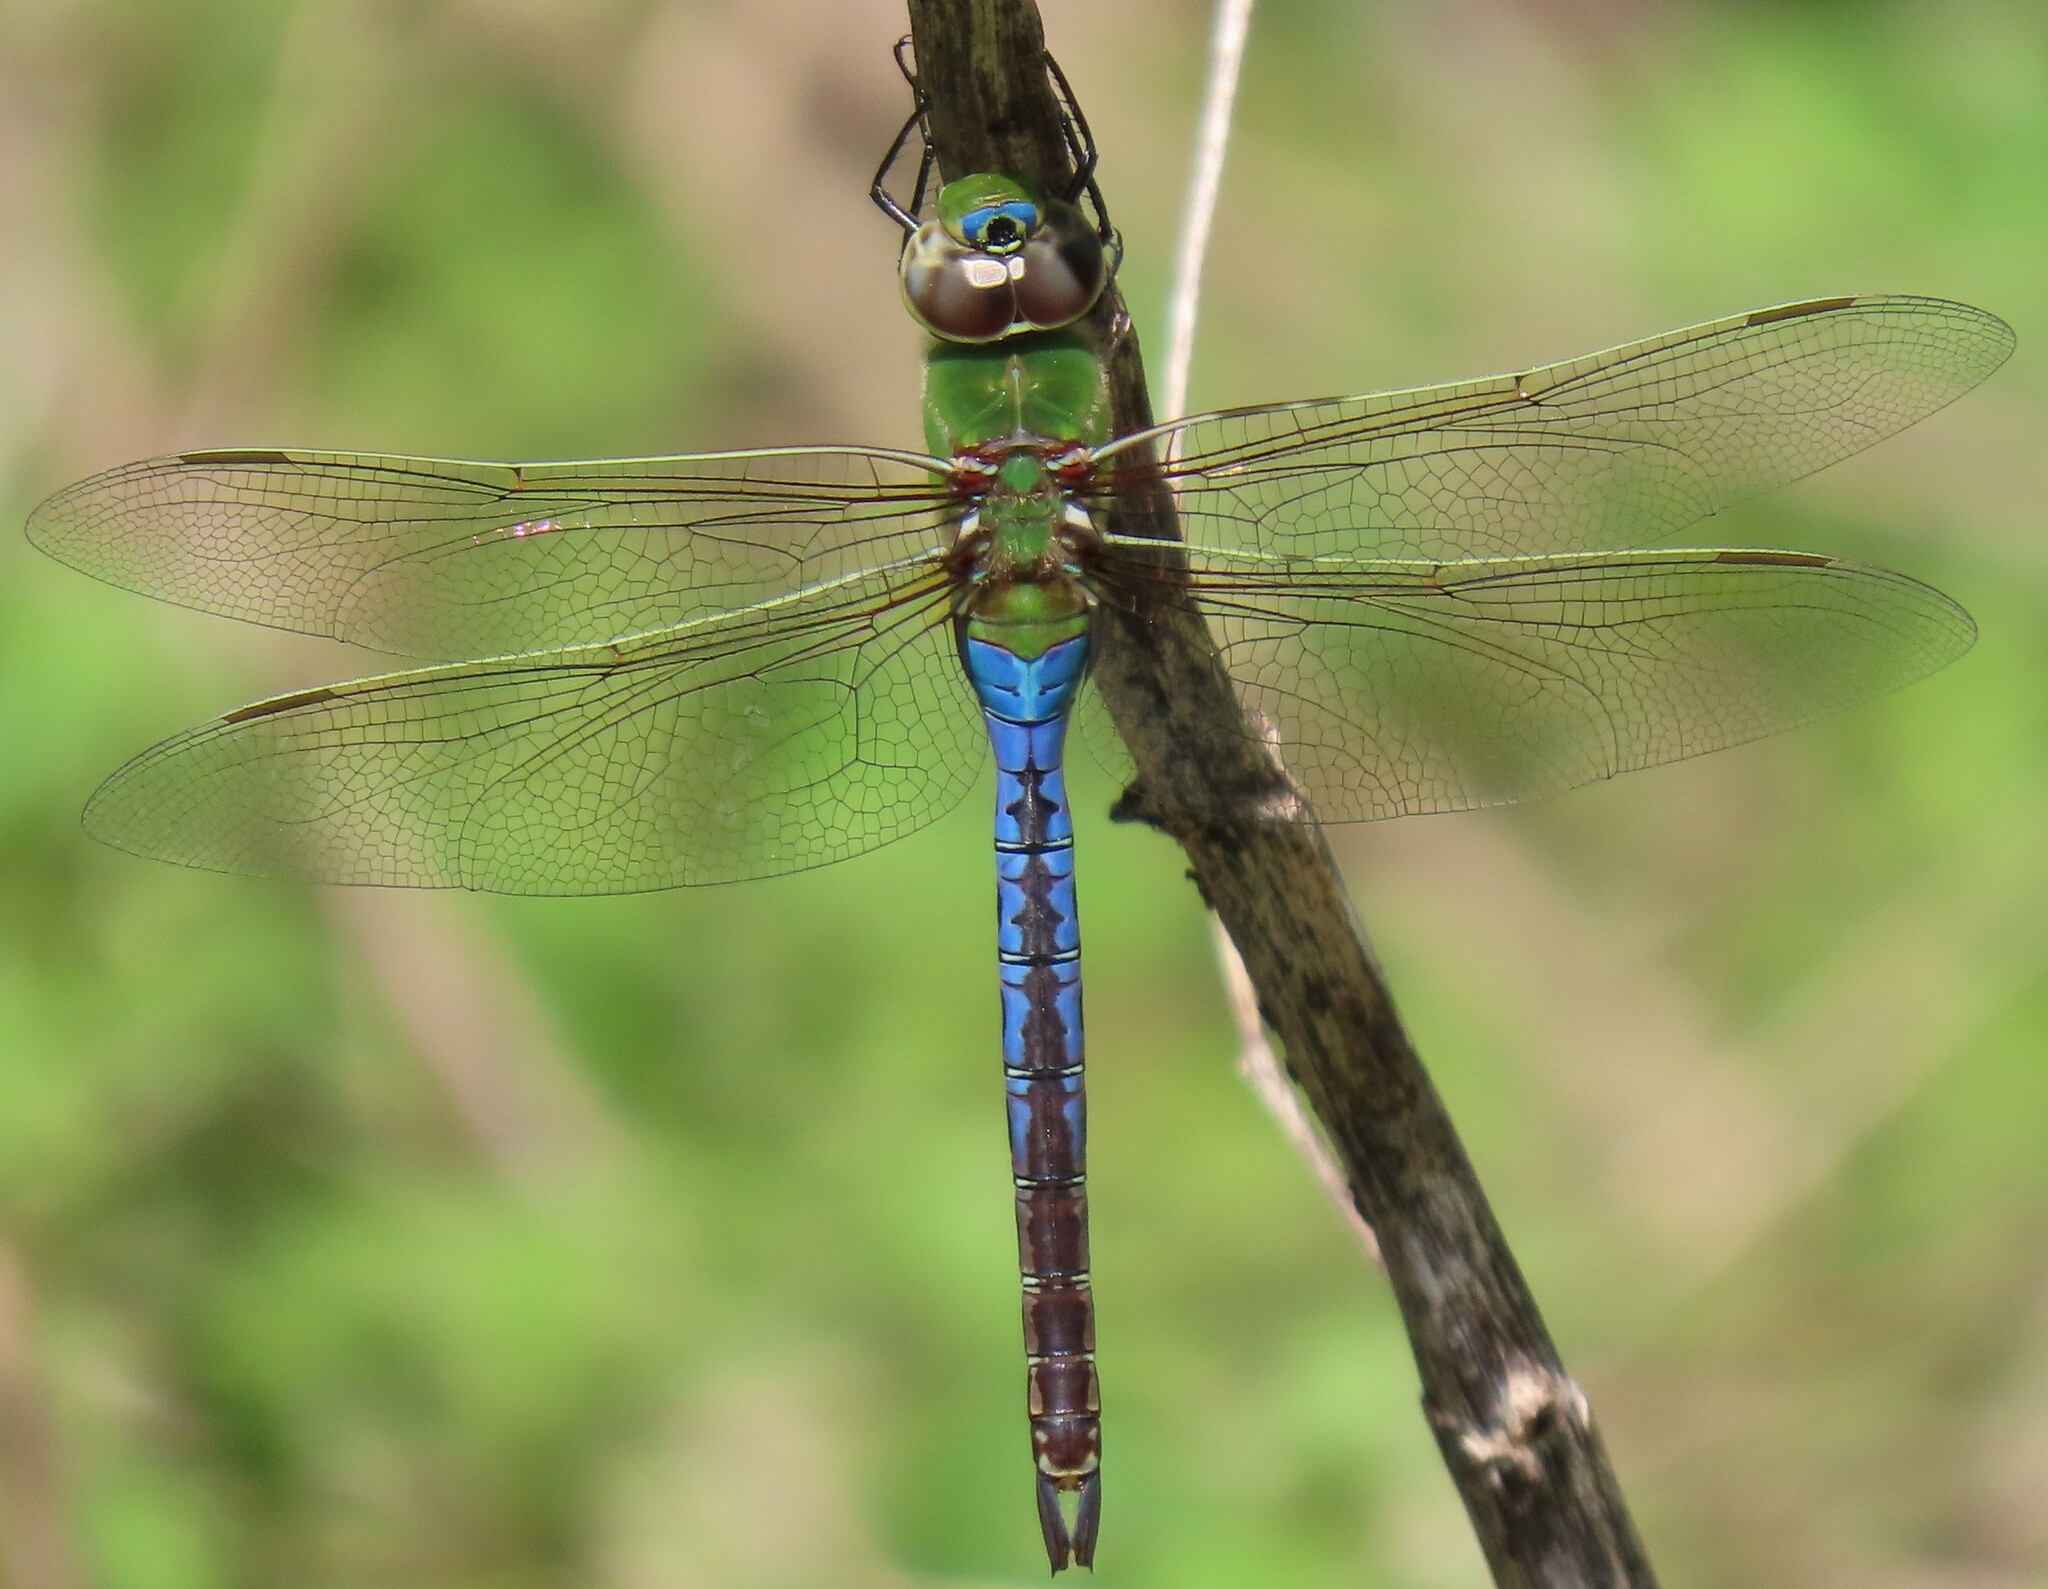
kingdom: Animalia
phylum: Arthropoda
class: Insecta
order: Odonata
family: Aeshnidae
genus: Anax
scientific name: Anax junius
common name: Common green darner
